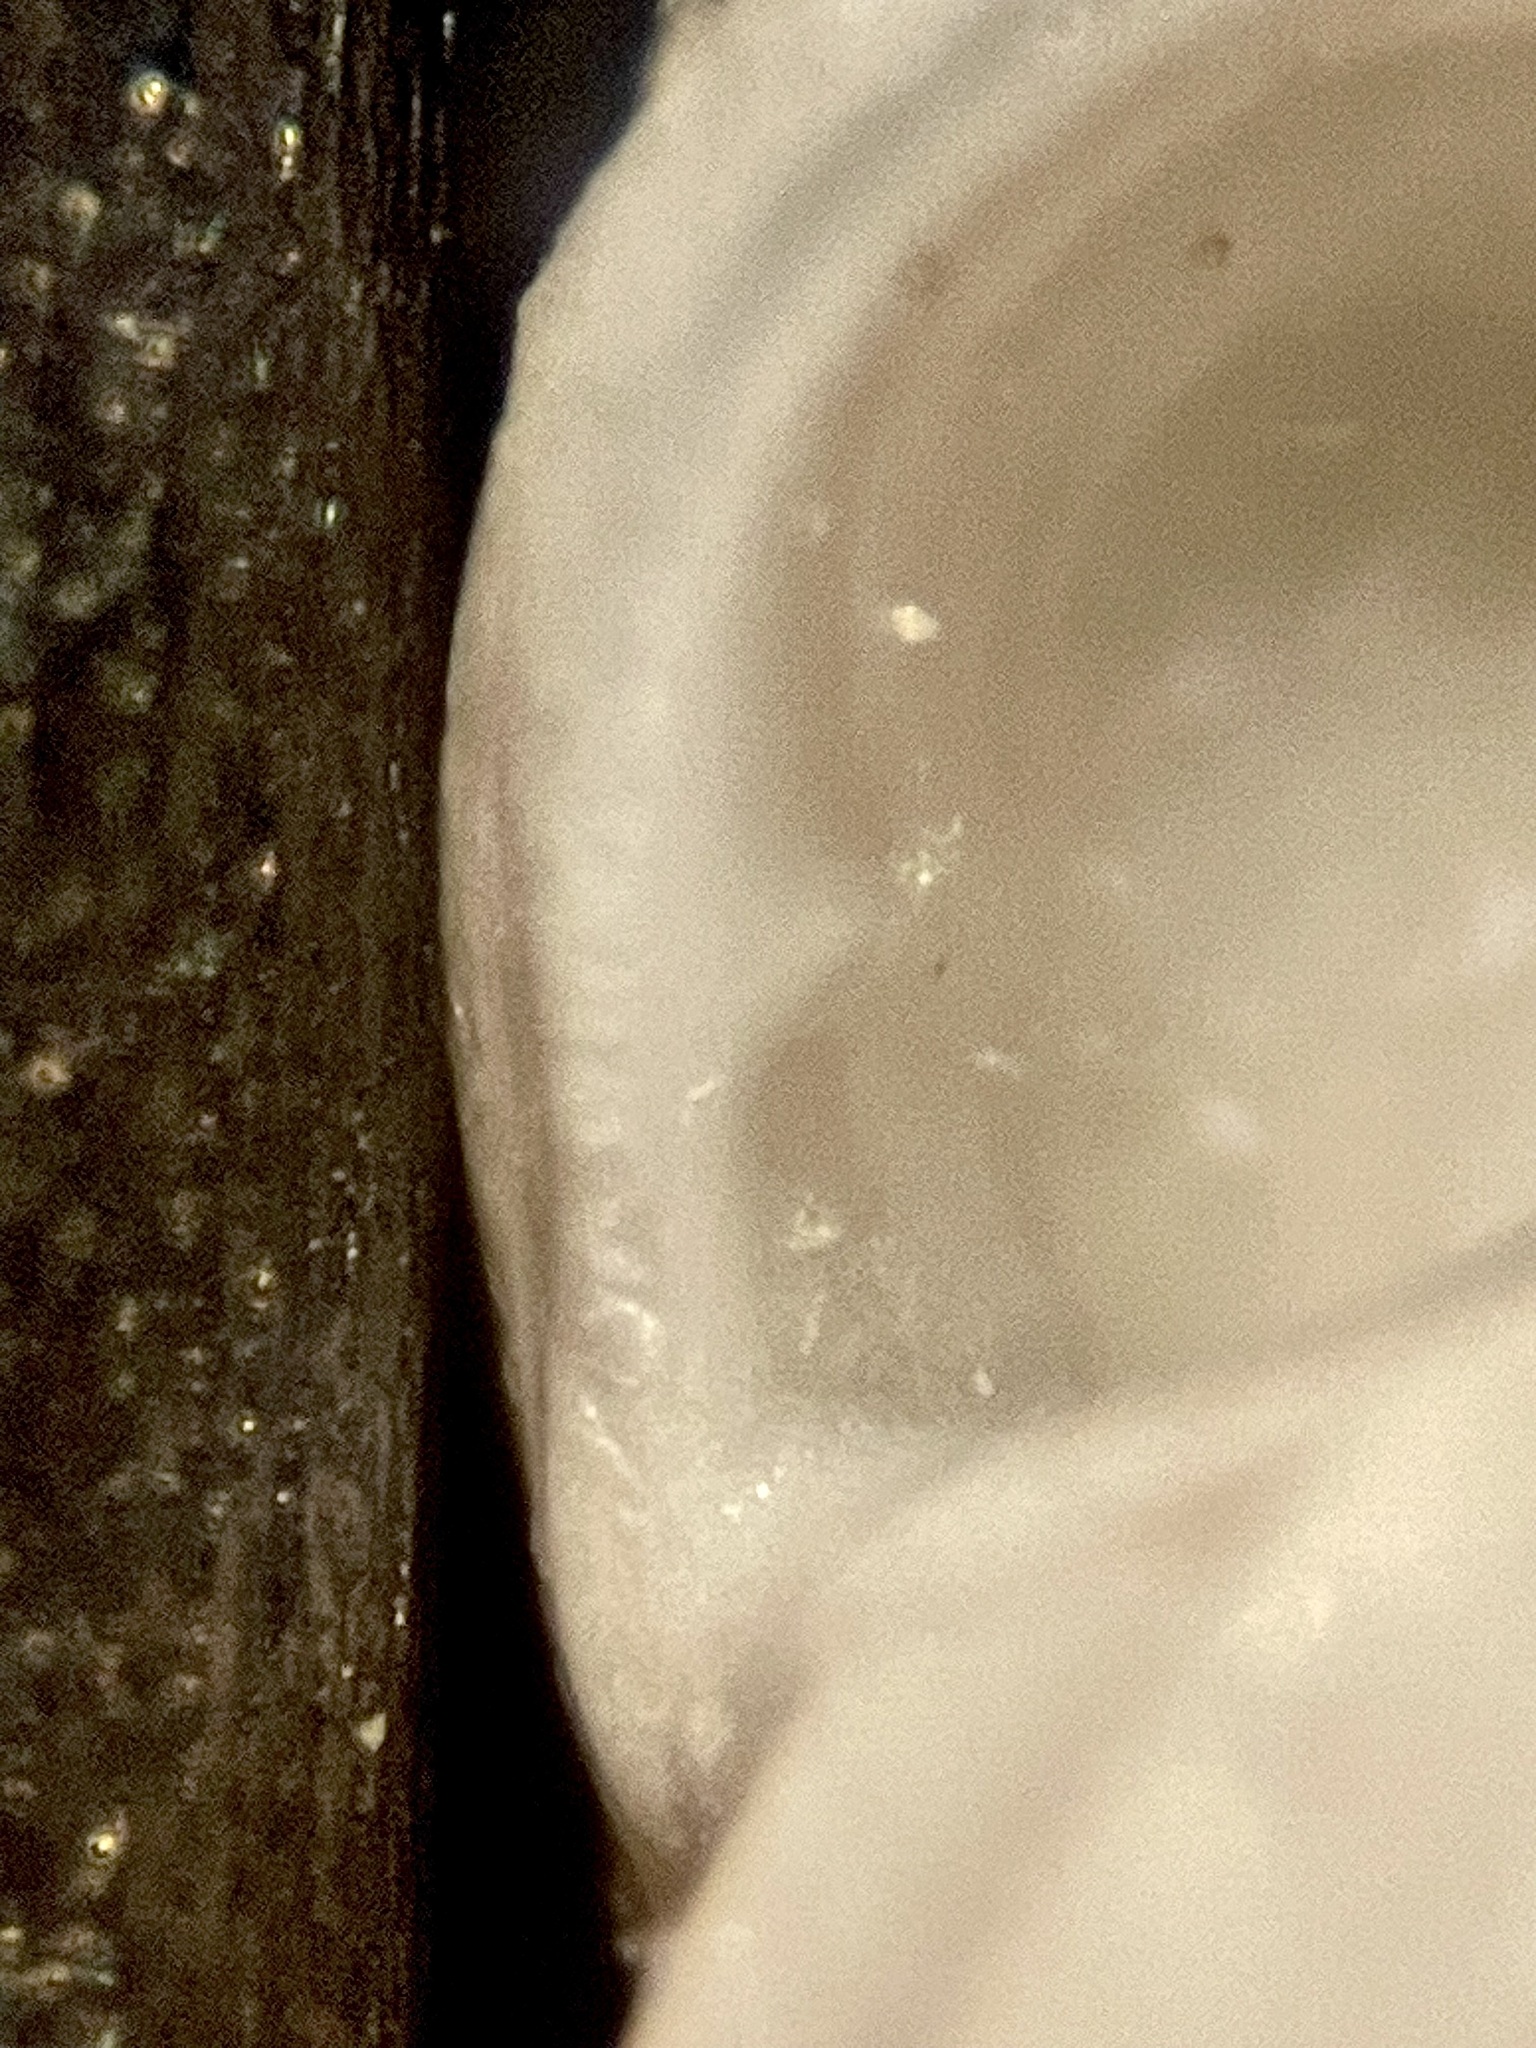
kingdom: Animalia
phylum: Mollusca
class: Gastropoda
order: Littorinimorpha
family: Zebinidae
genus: Schwartziella
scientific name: Schwartziella catesbyana
